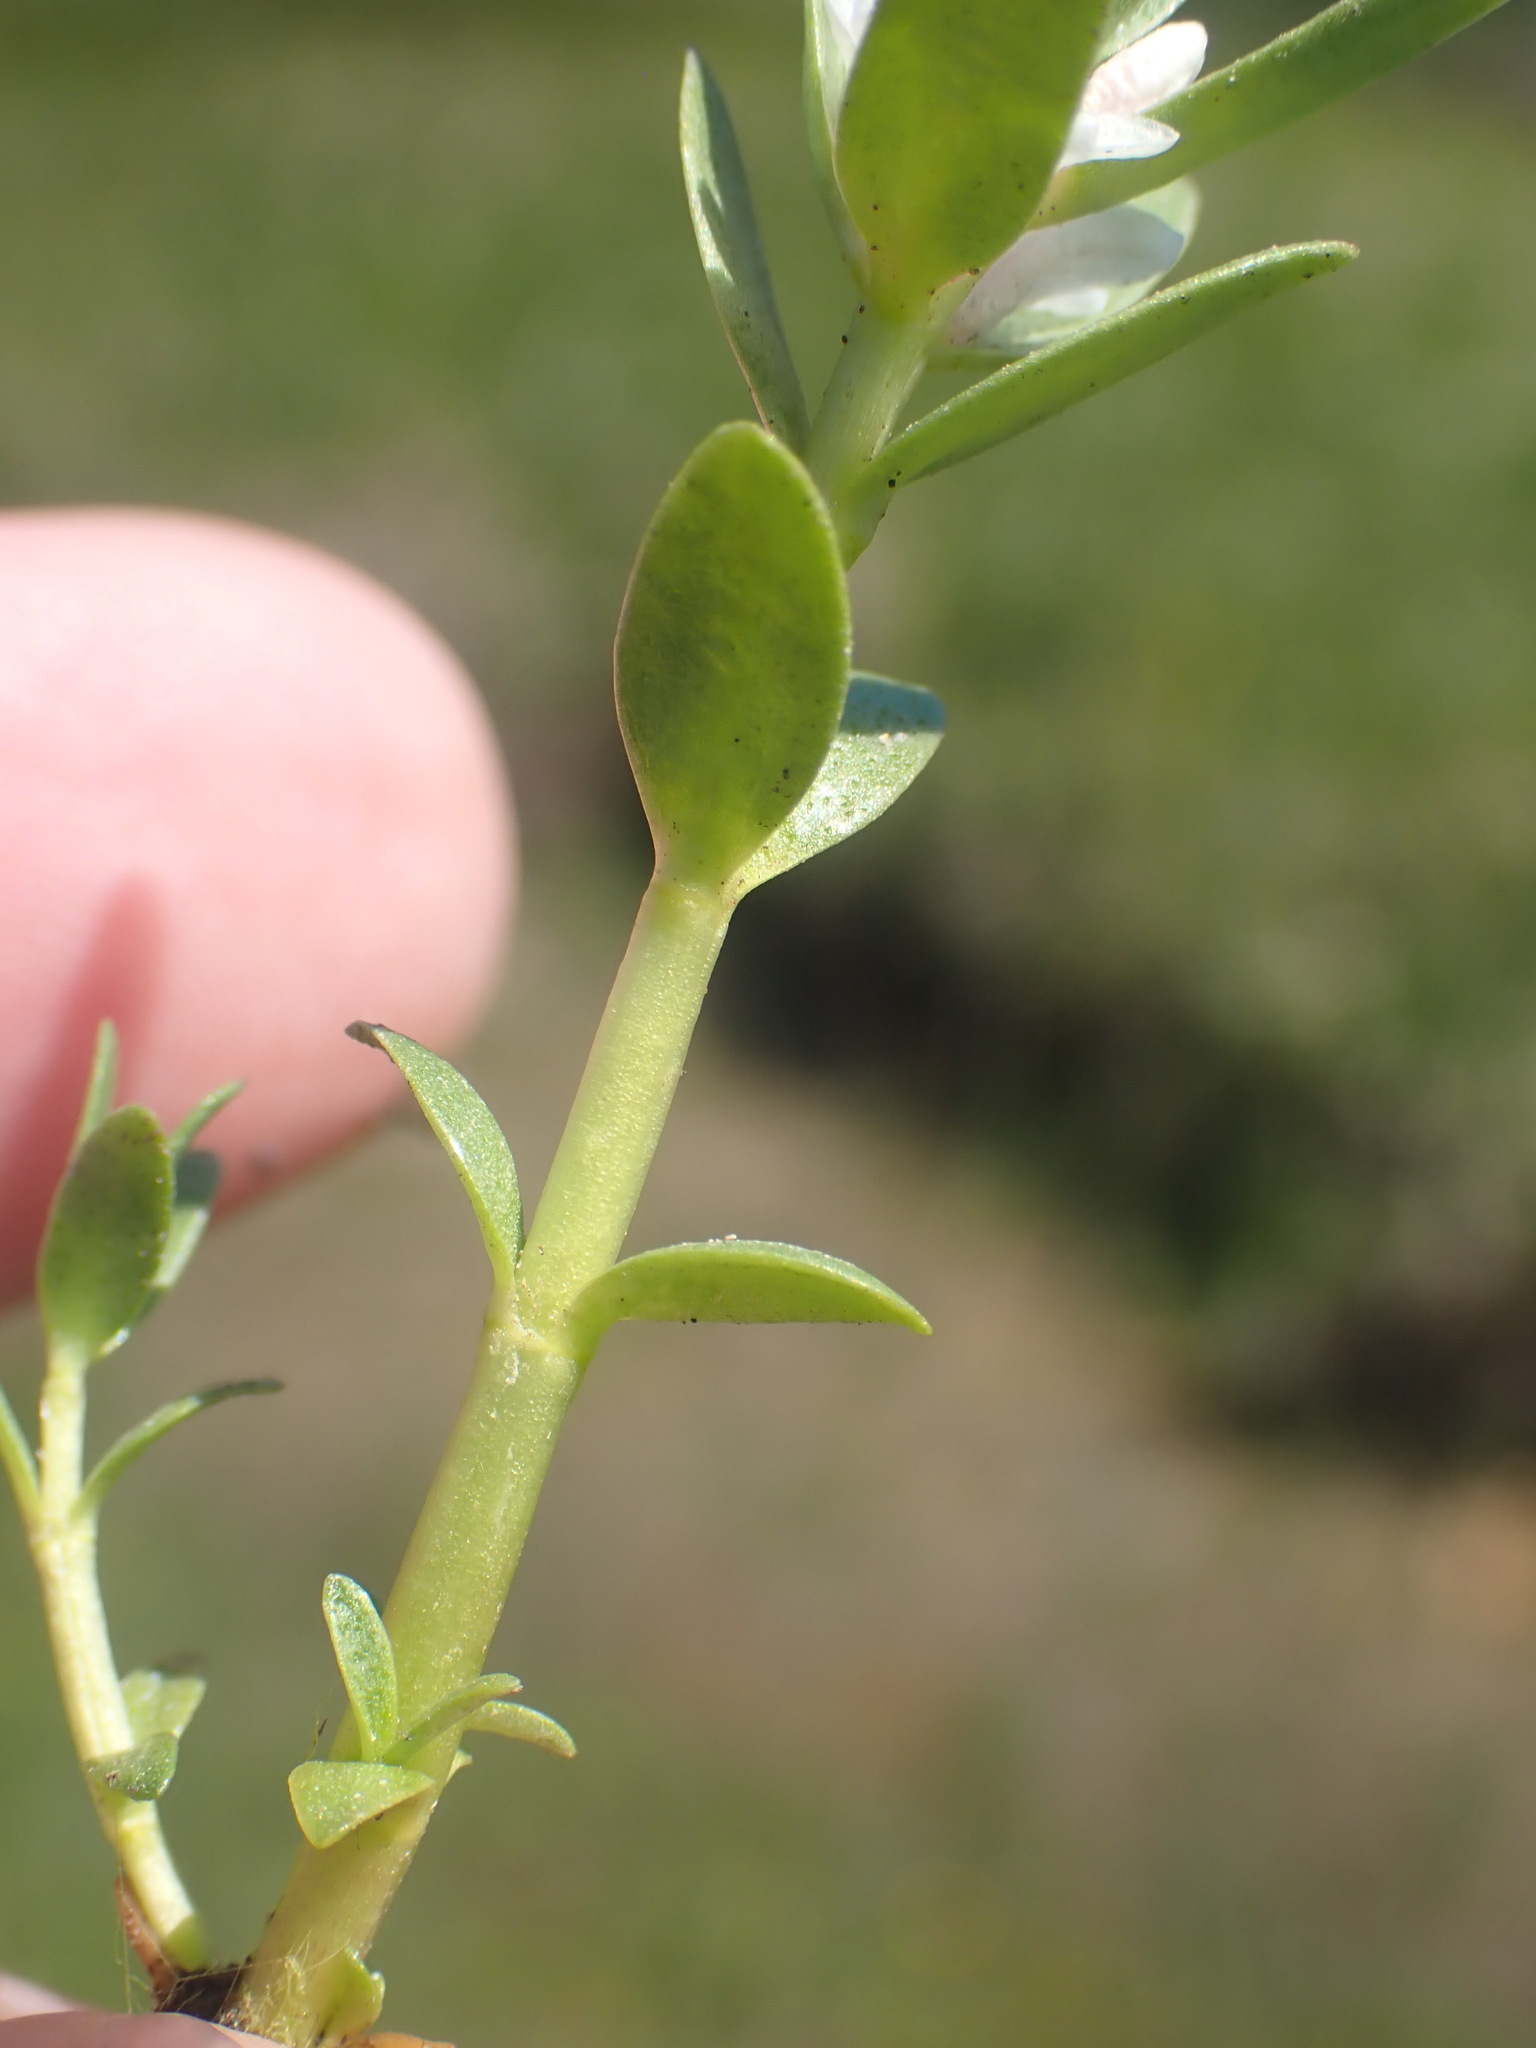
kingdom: Plantae
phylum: Tracheophyta
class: Magnoliopsida
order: Ericales
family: Primulaceae
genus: Lysimachia
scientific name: Lysimachia maritima
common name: Sea milkwort
